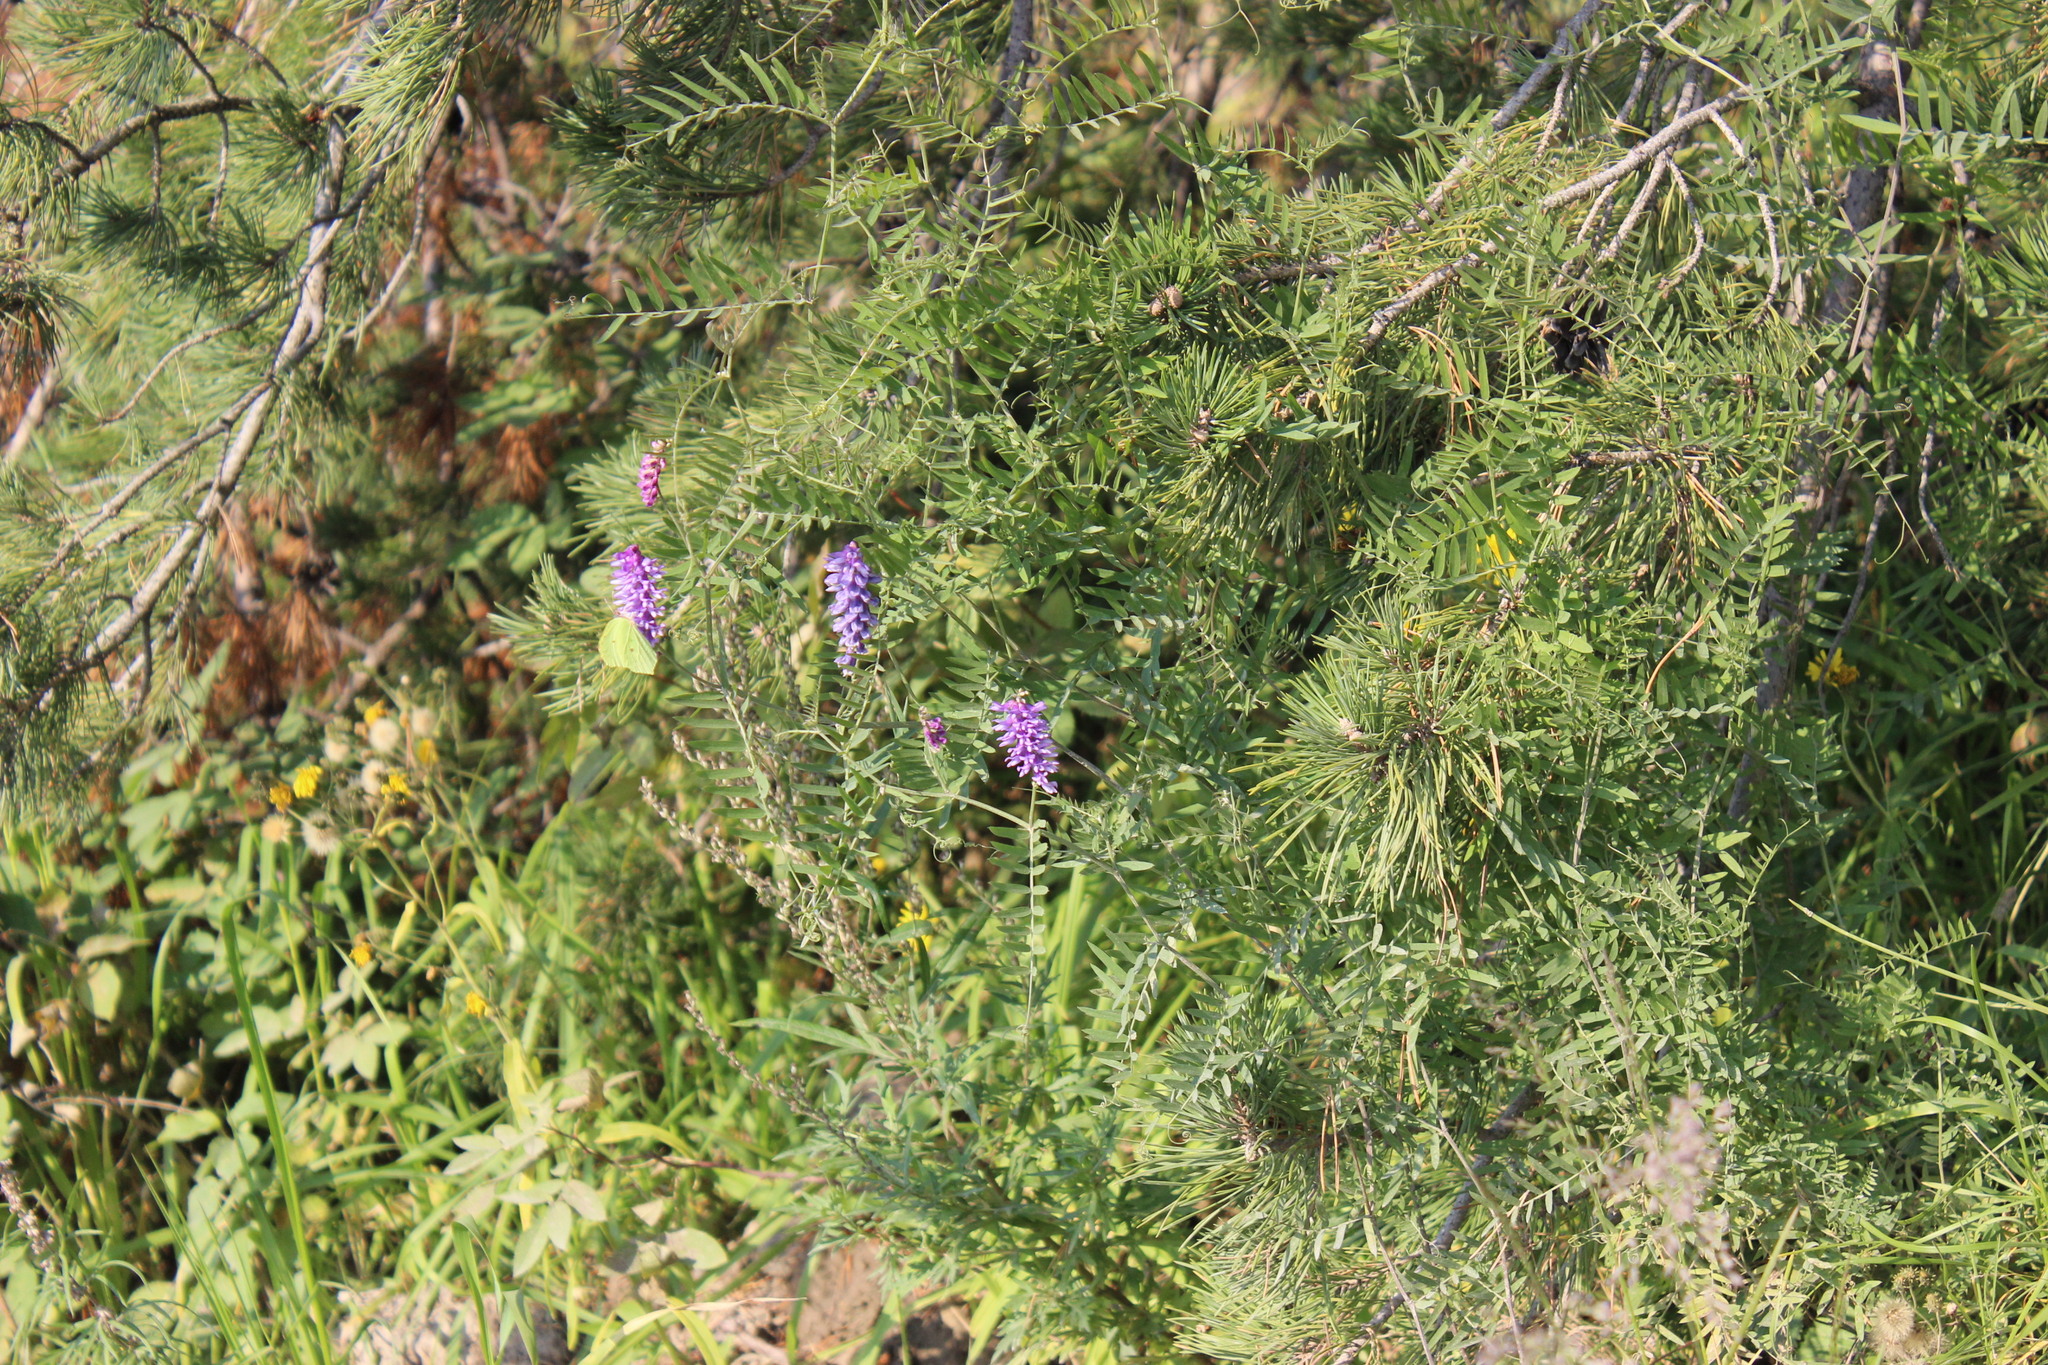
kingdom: Plantae
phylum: Tracheophyta
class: Magnoliopsida
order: Fabales
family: Fabaceae
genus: Vicia
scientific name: Vicia cracca
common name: Bird vetch
